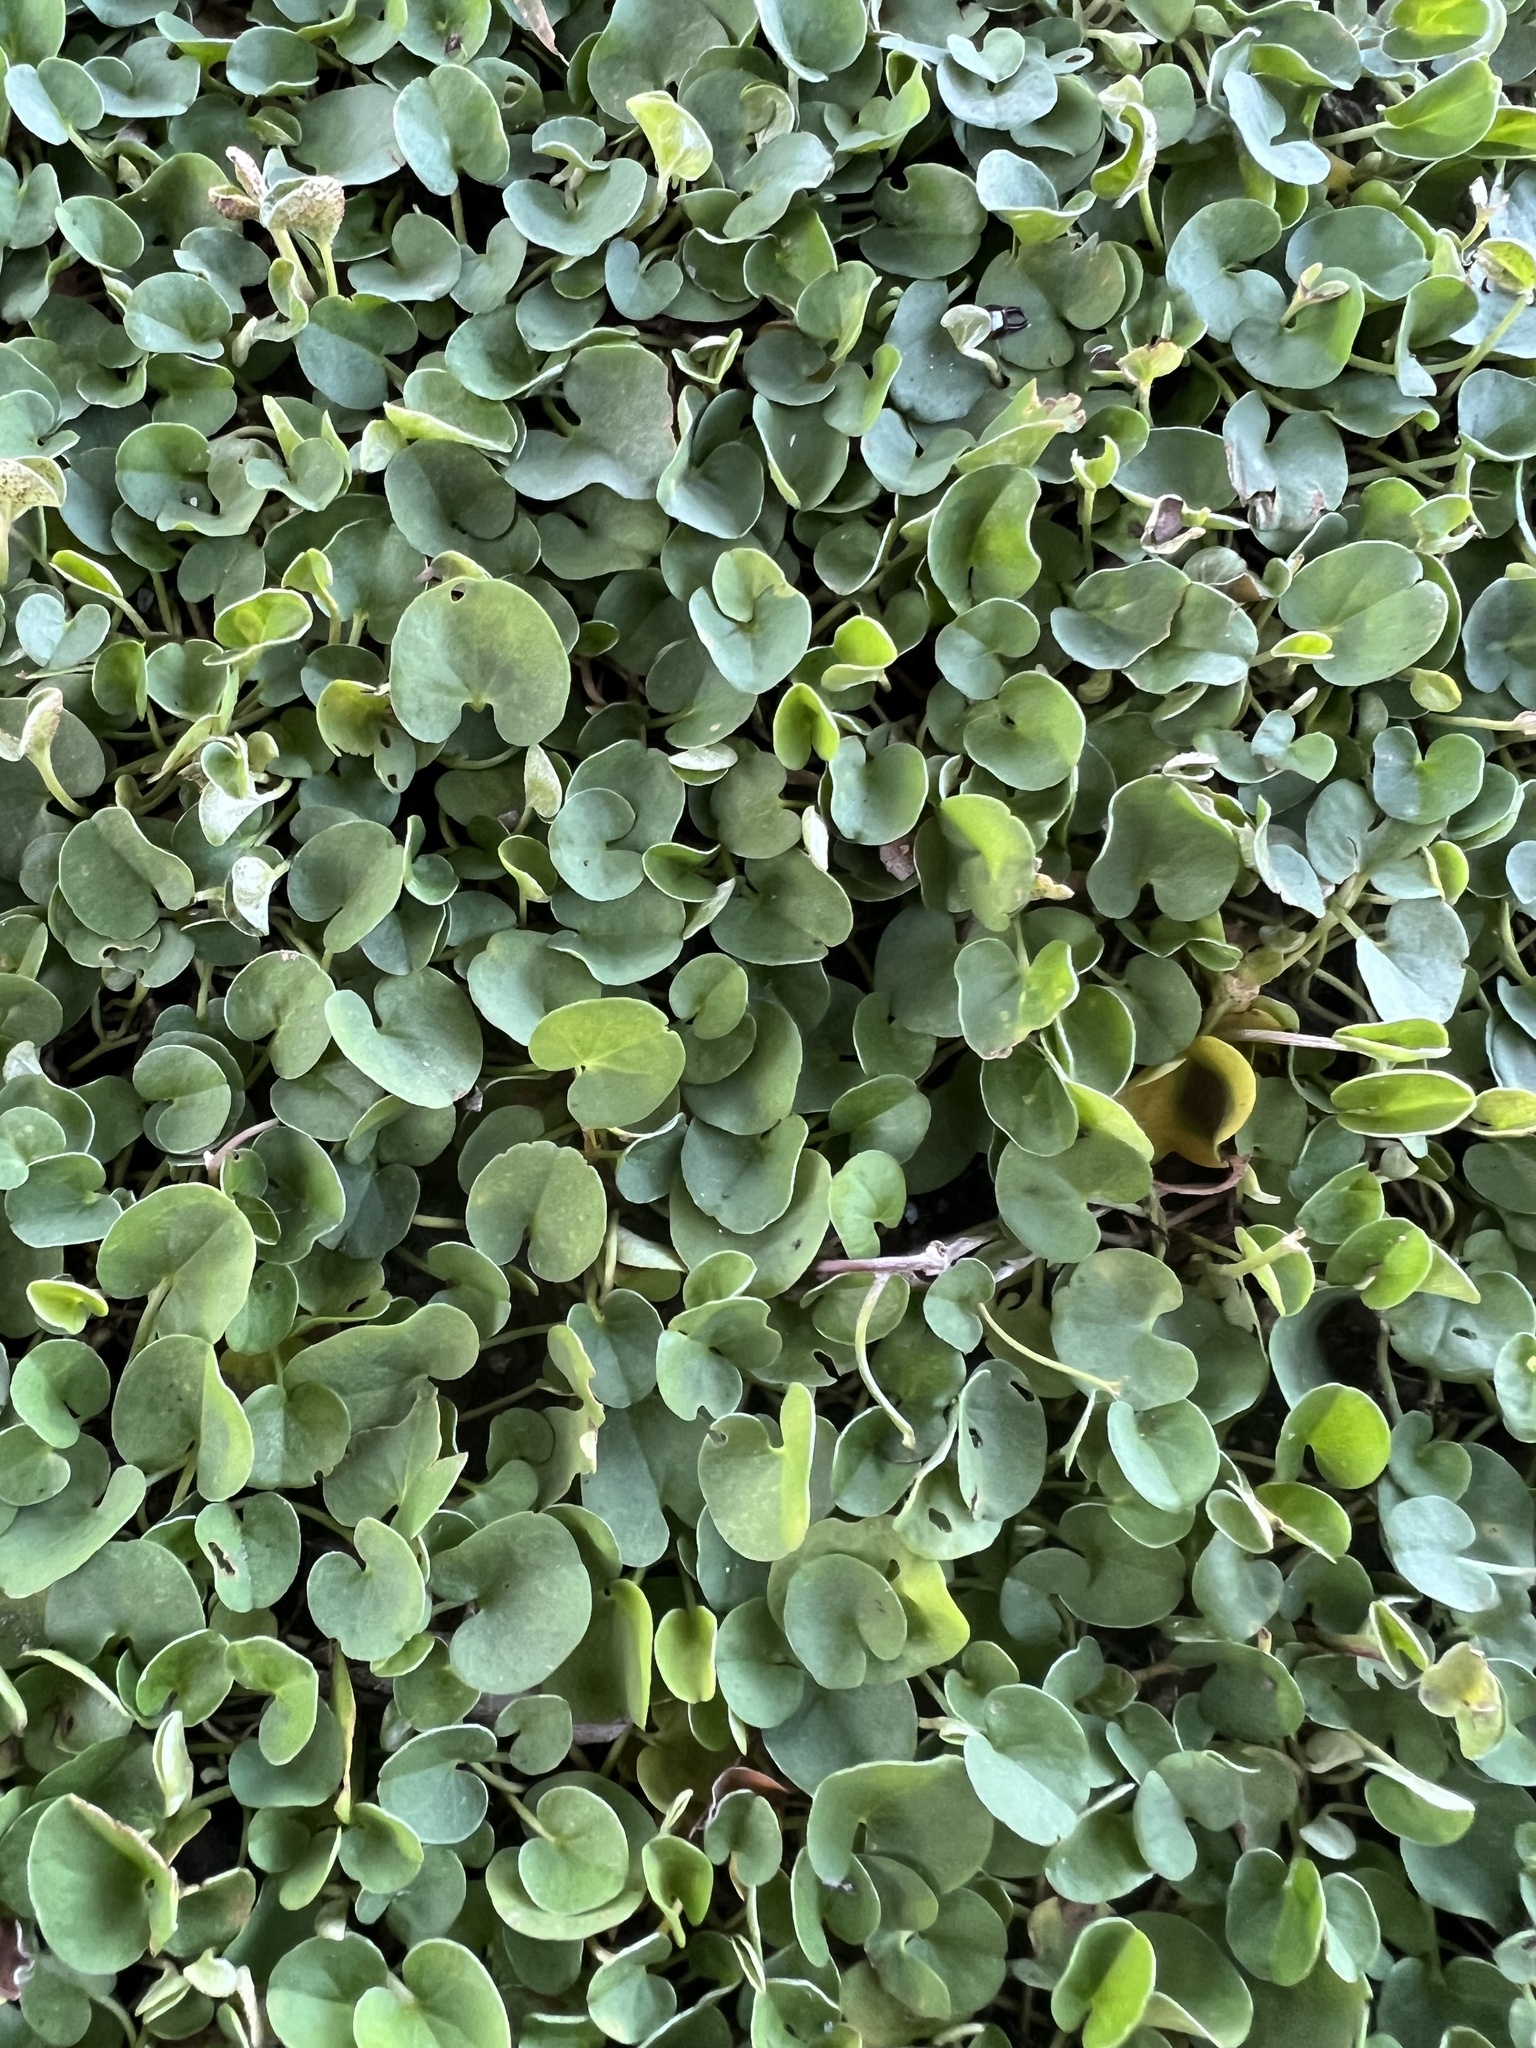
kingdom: Plantae
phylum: Tracheophyta
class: Magnoliopsida
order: Solanales
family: Convolvulaceae
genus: Dichondra
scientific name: Dichondra micrantha
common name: Kidneyweed
